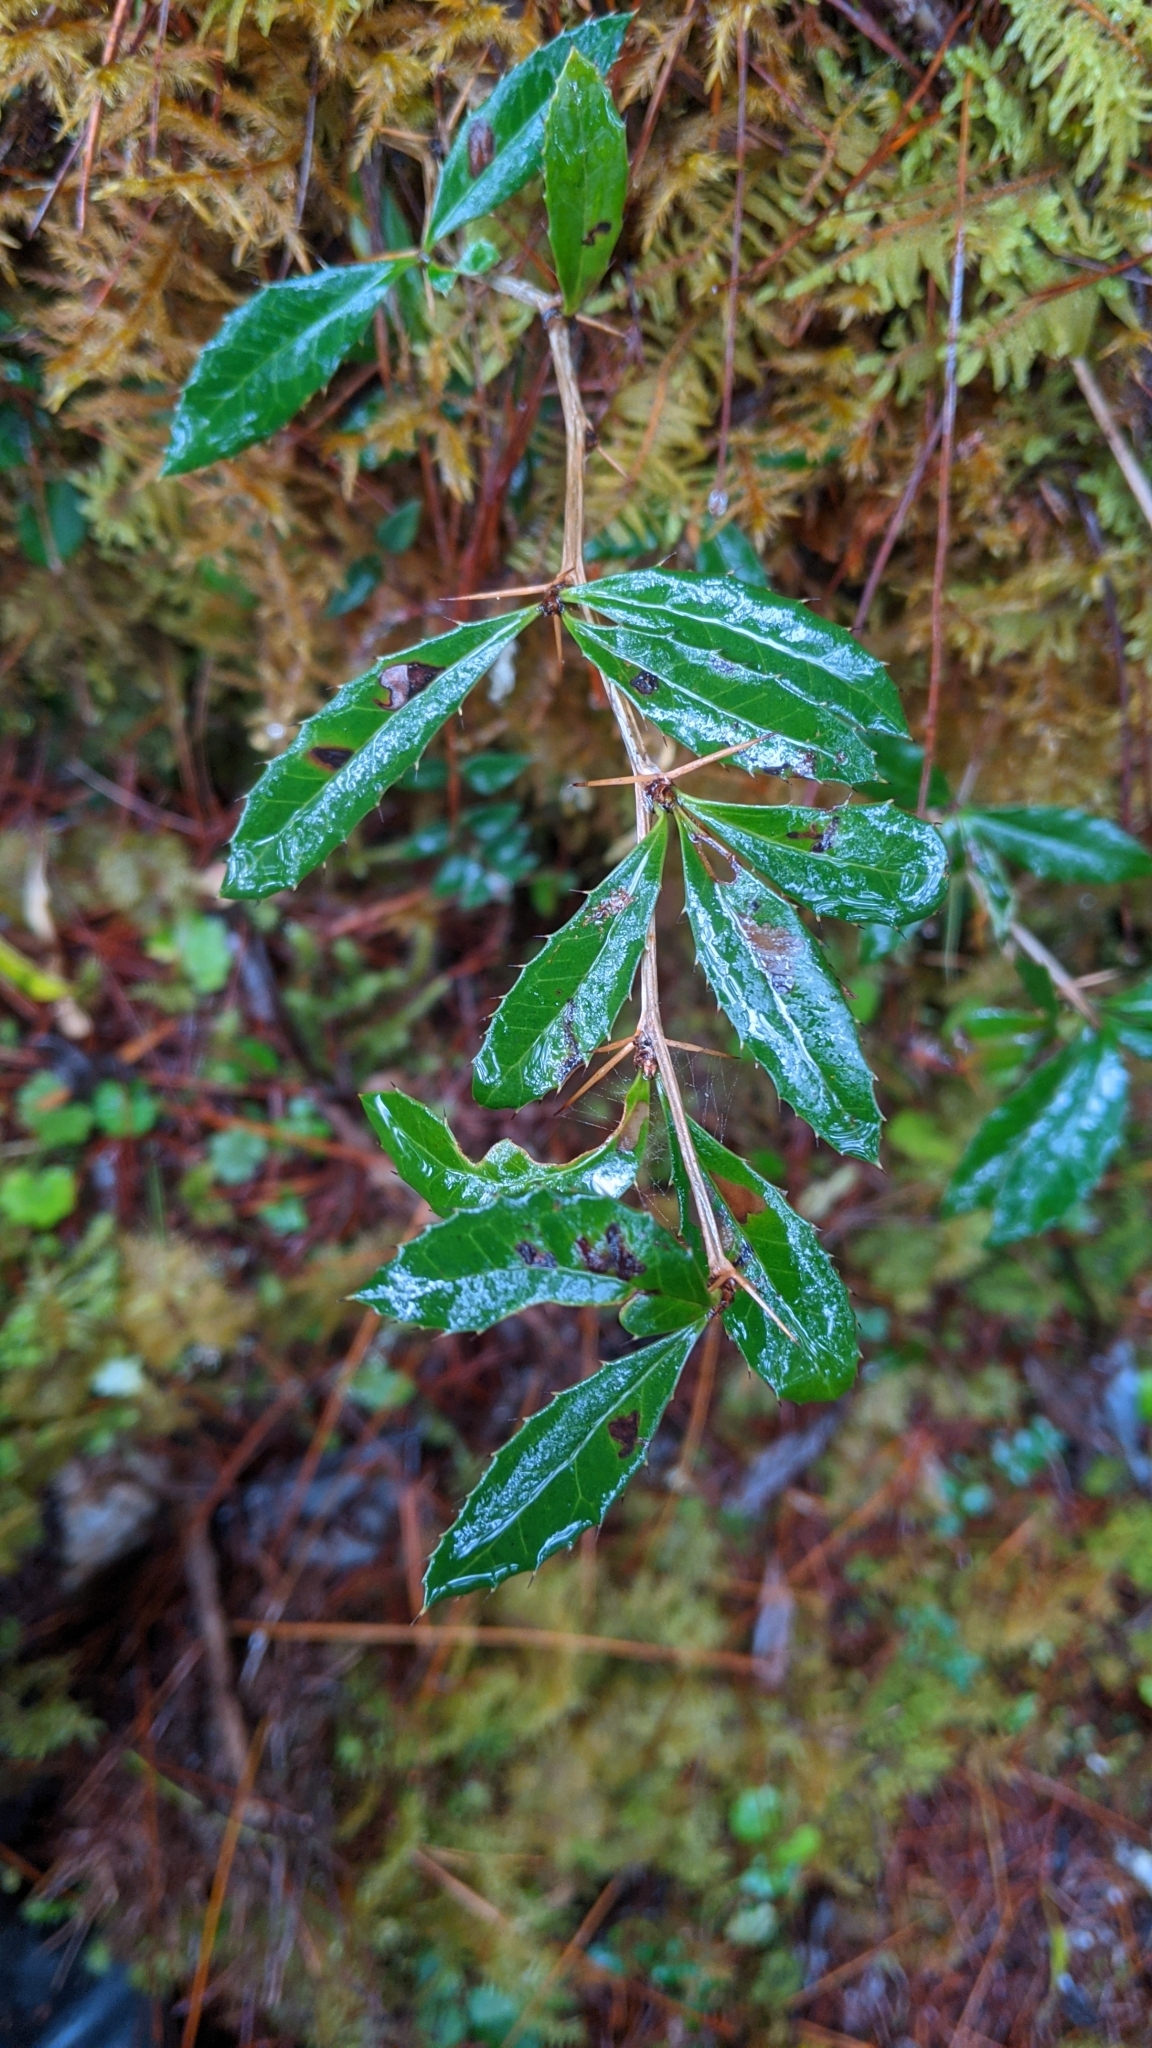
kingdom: Plantae
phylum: Tracheophyta
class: Magnoliopsida
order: Ranunculales
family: Berberidaceae
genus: Berberis
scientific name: Berberis kawakamii
